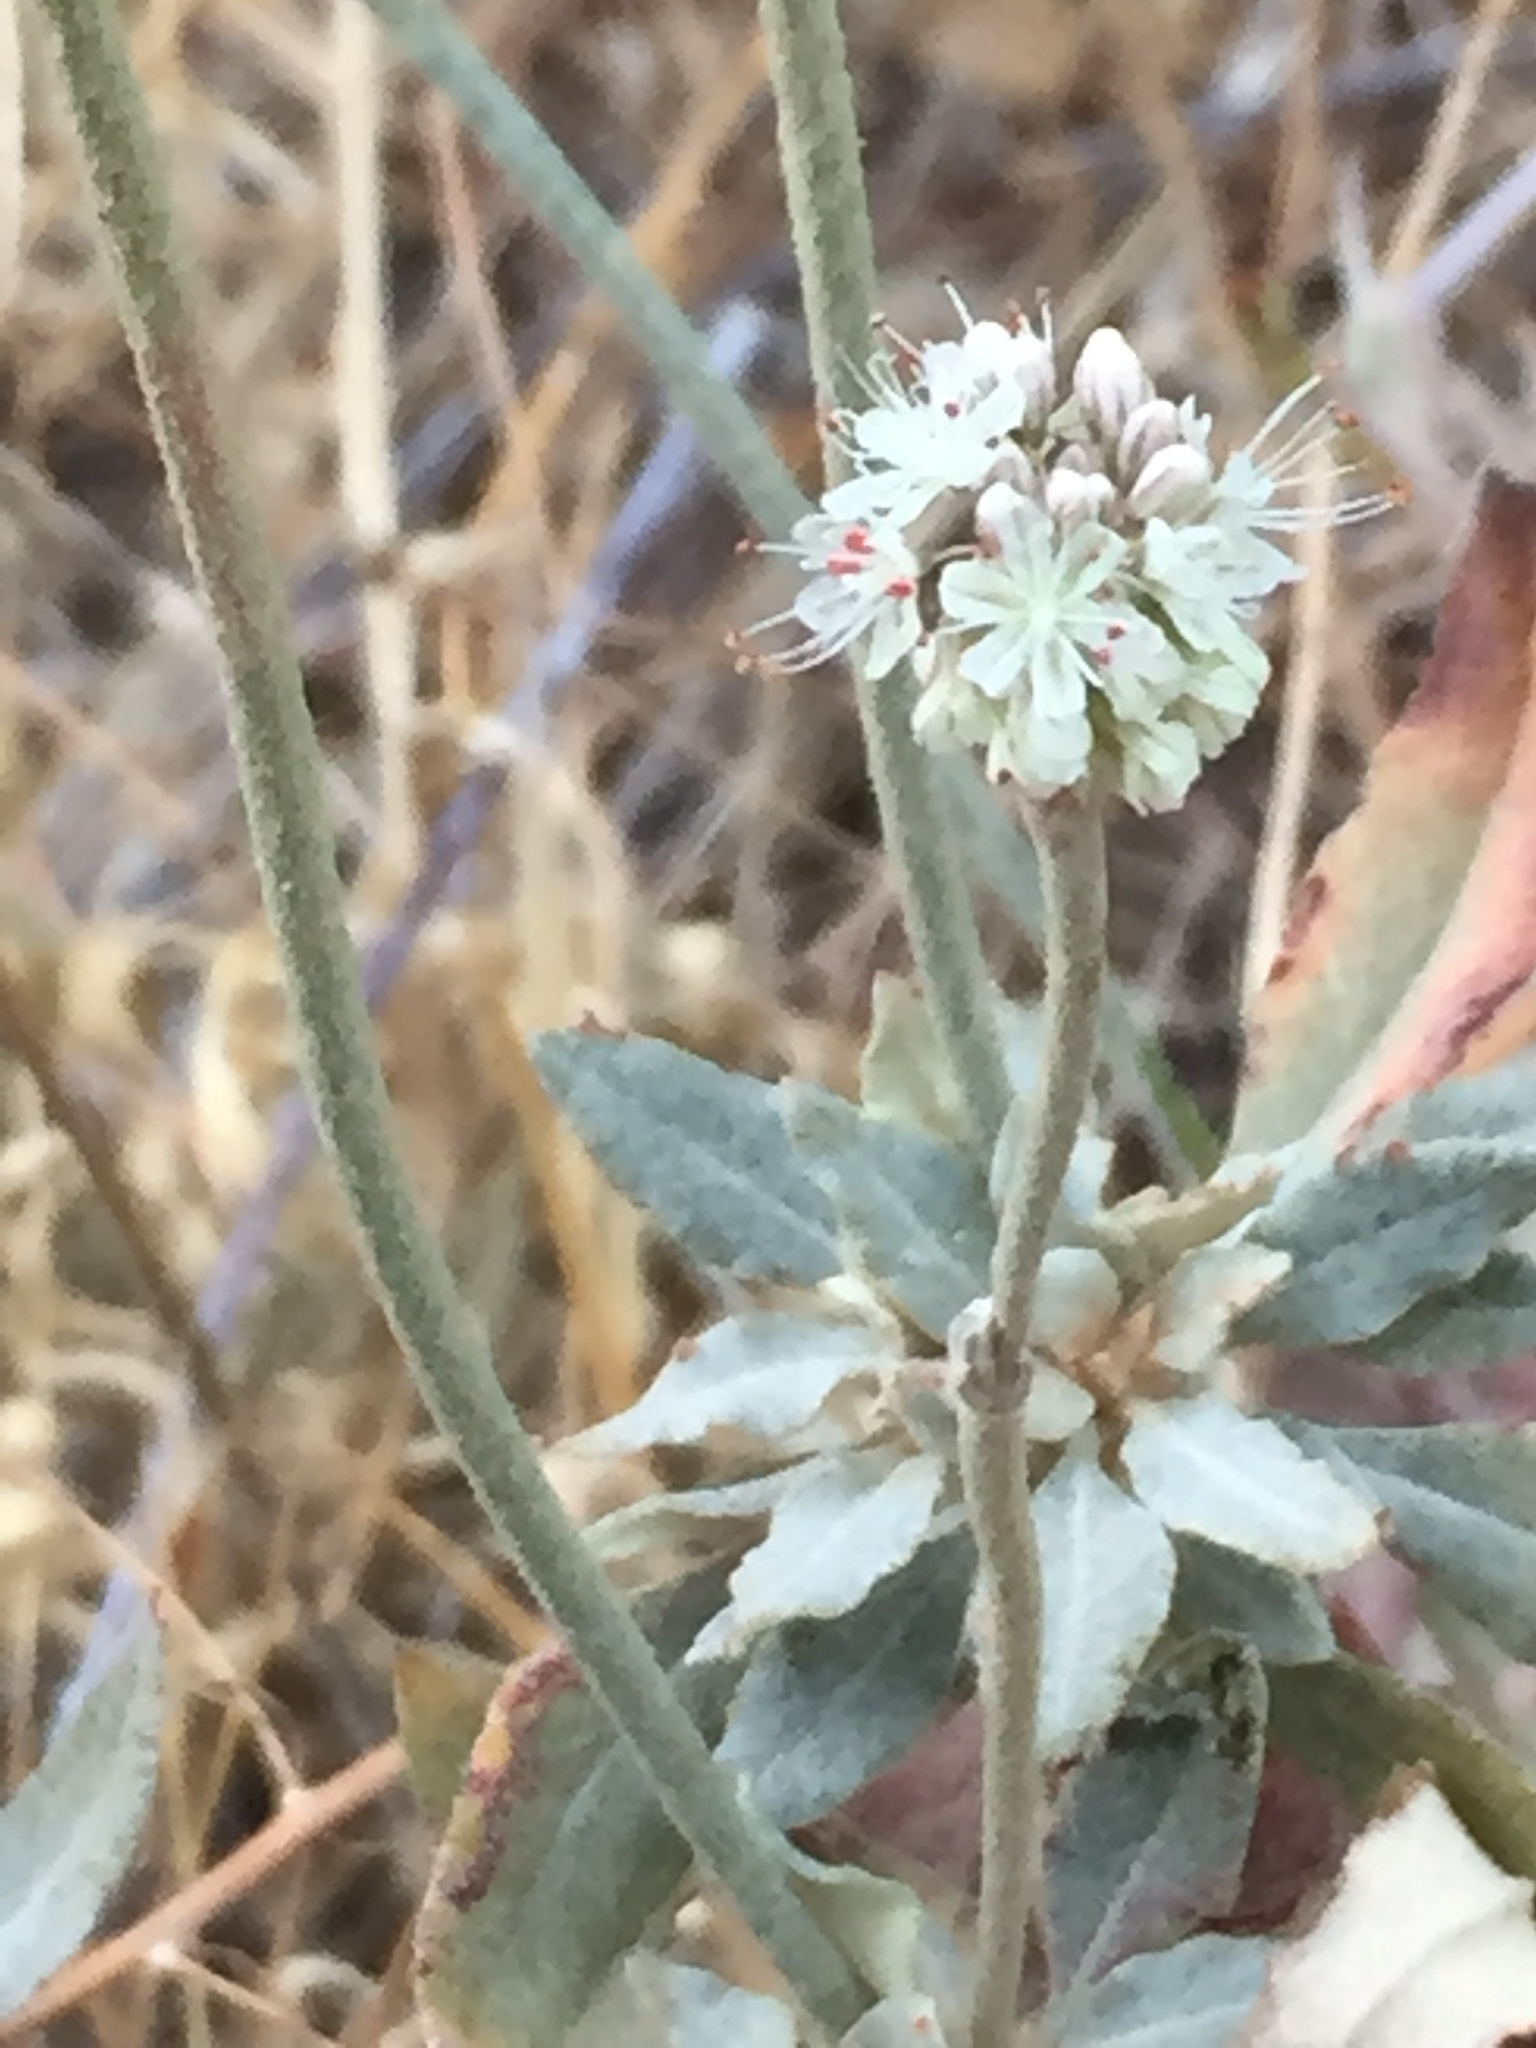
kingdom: Plantae
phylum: Tracheophyta
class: Magnoliopsida
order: Caryophyllales
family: Polygonaceae
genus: Eriogonum
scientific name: Eriogonum elongatum
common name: Long-stem wild buckwheat
